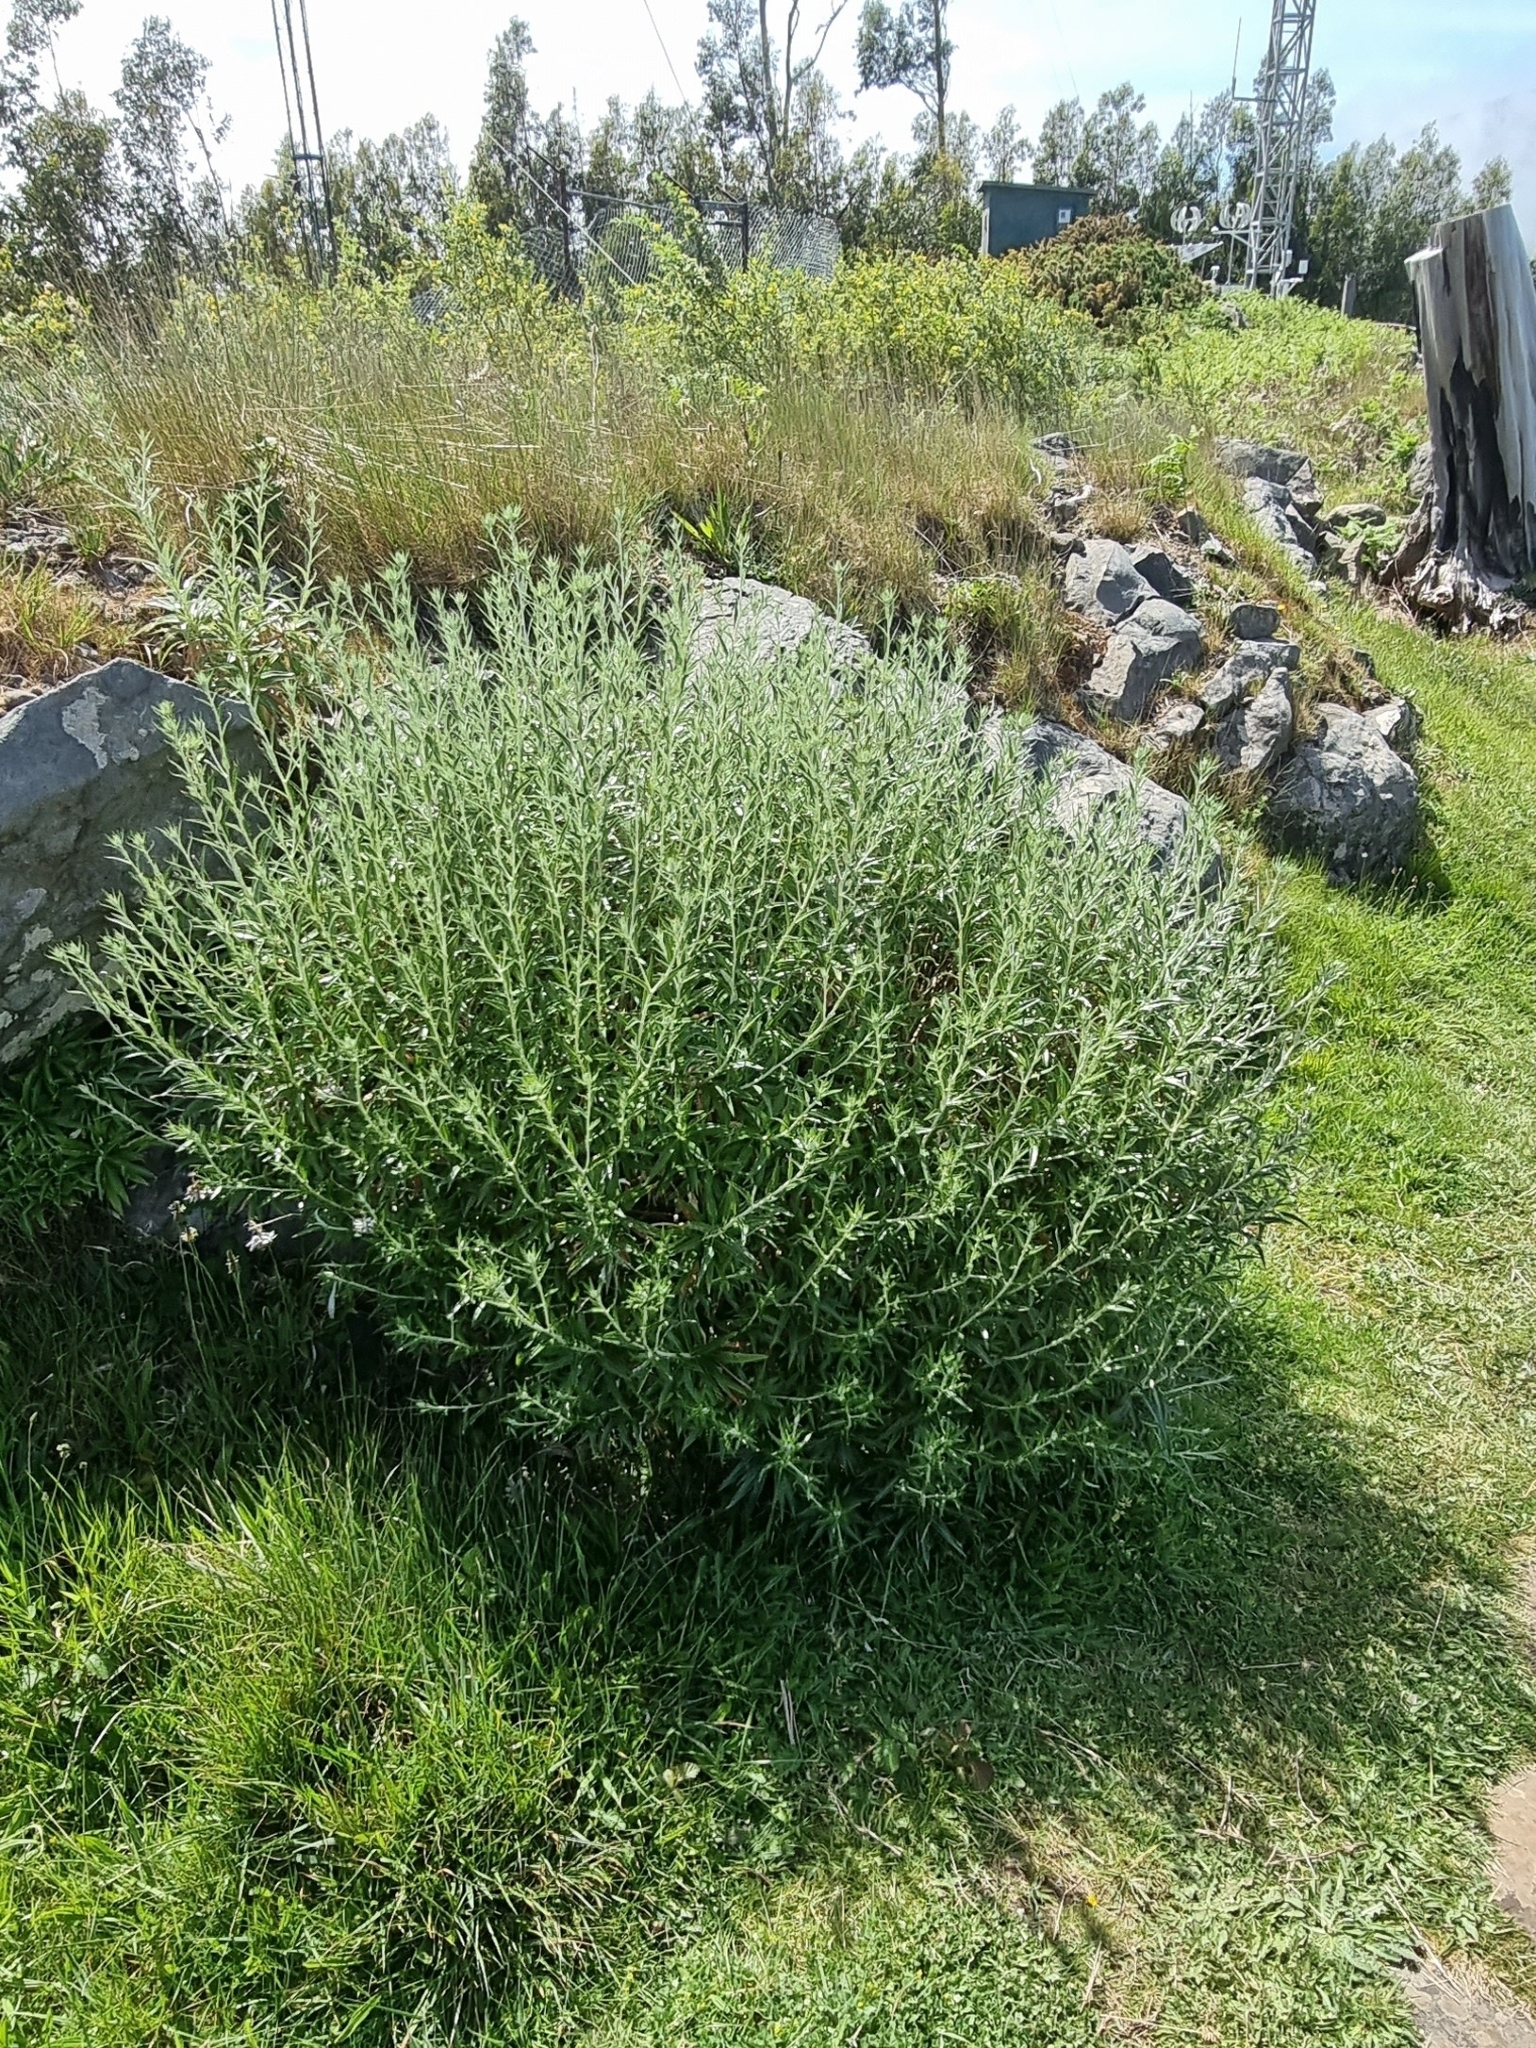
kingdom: Plantae
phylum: Tracheophyta
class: Magnoliopsida
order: Asterales
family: Asteraceae
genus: Carlina
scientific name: Carlina salicifolia
